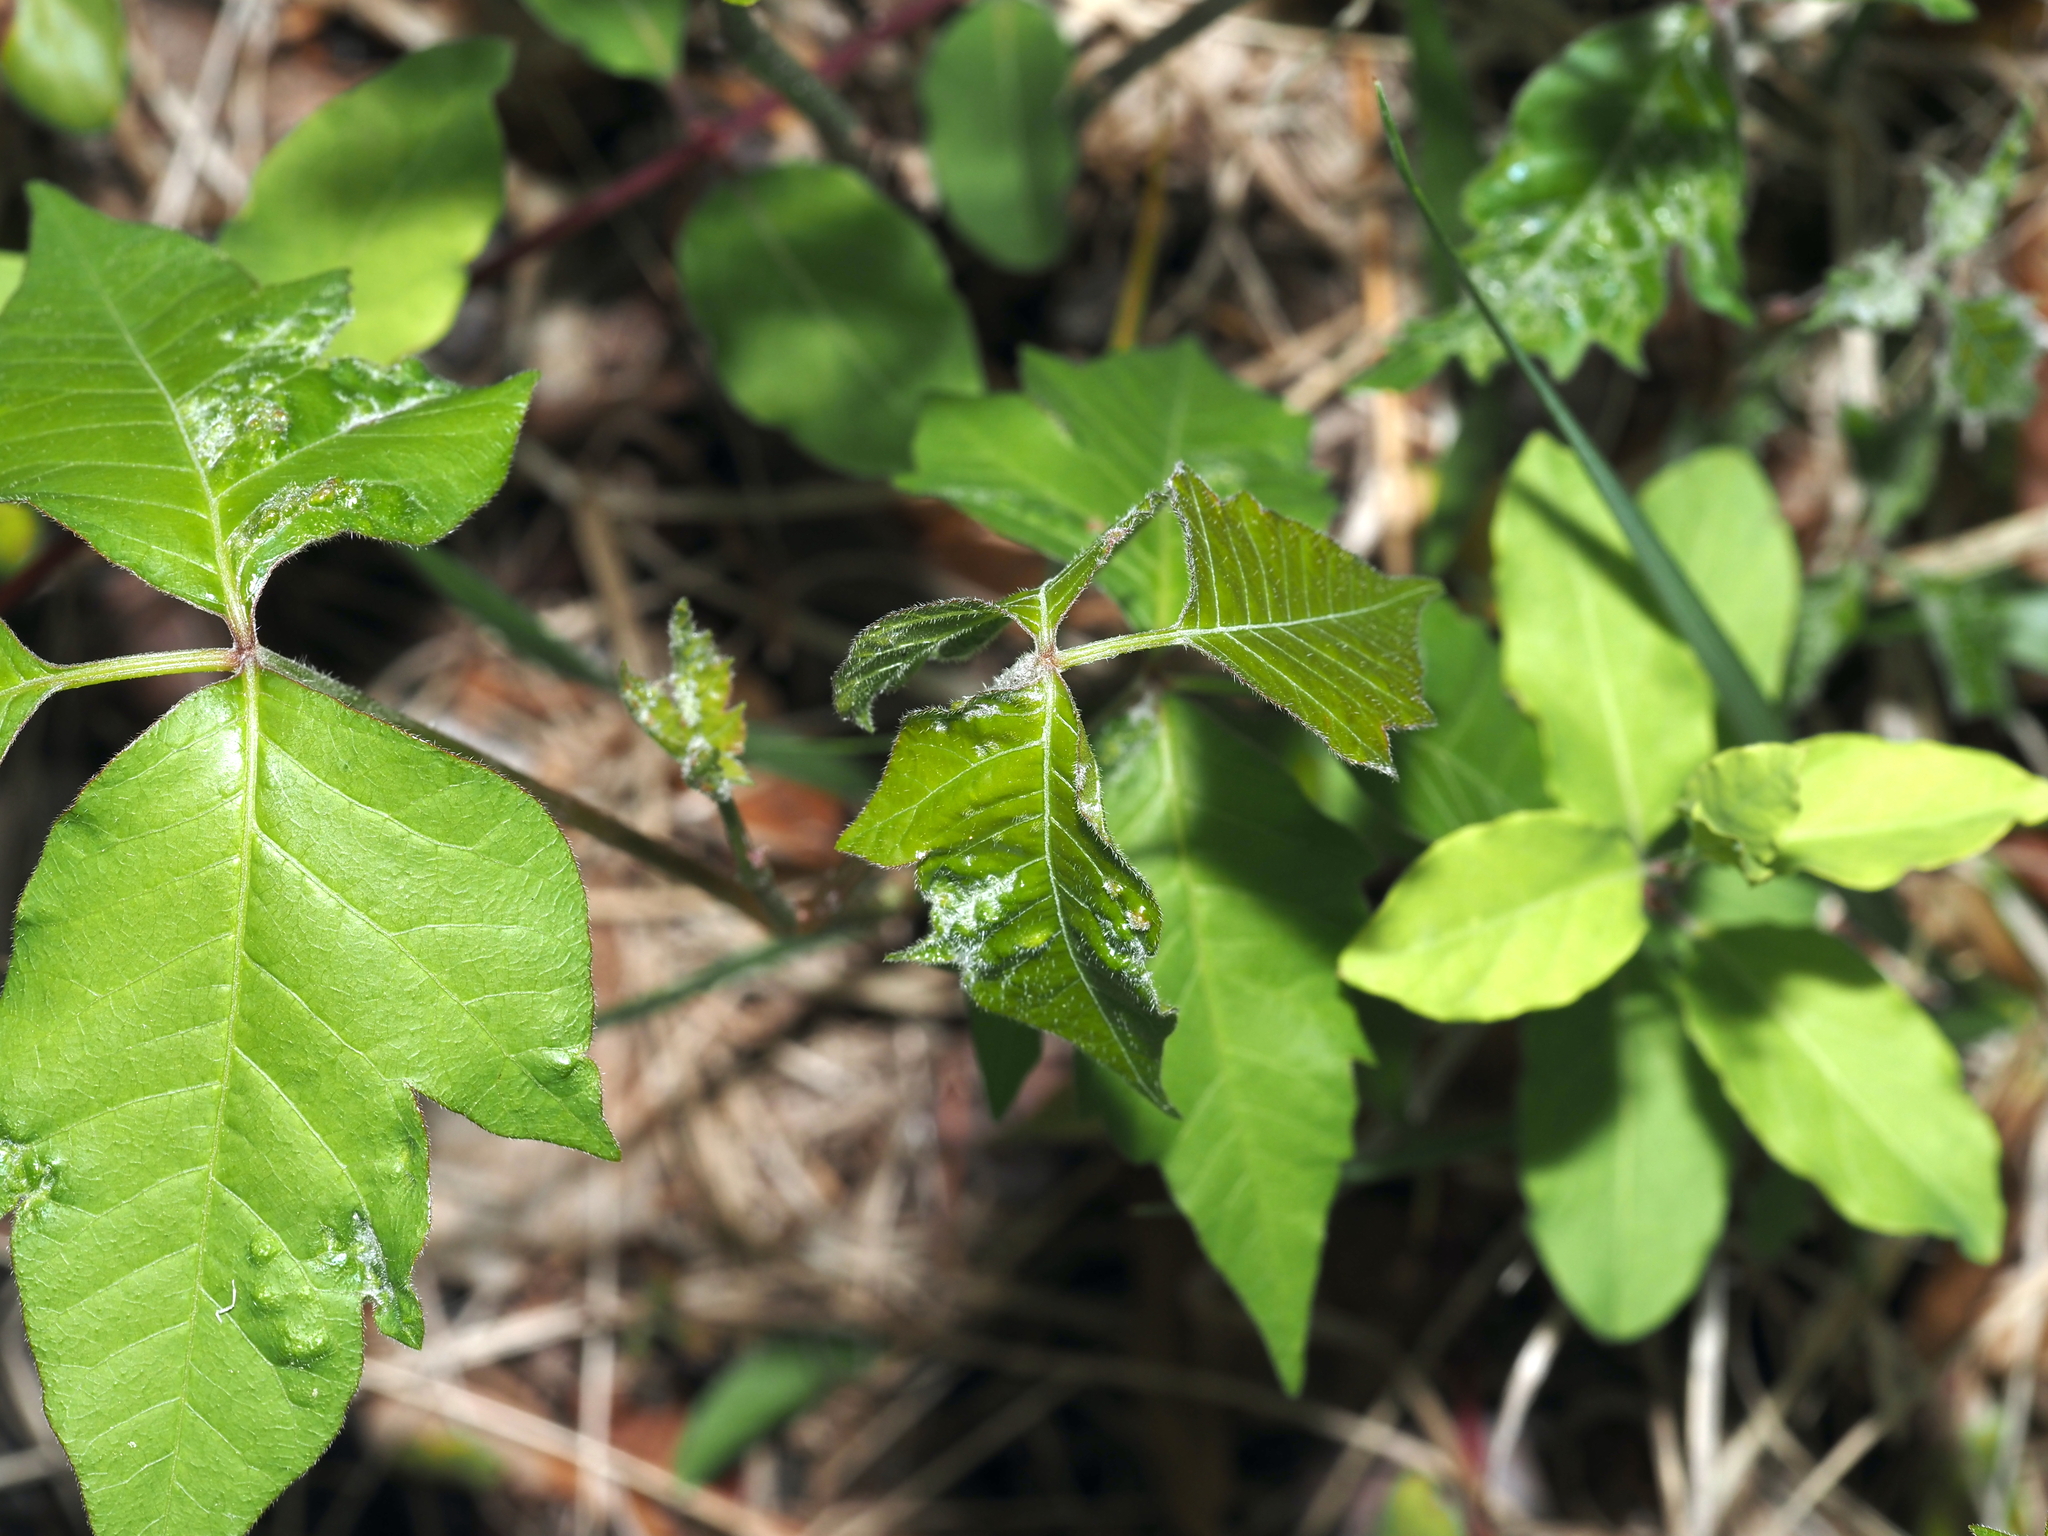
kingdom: Animalia
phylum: Arthropoda
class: Arachnida
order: Trombidiformes
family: Eriophyidae
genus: Aculops
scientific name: Aculops
